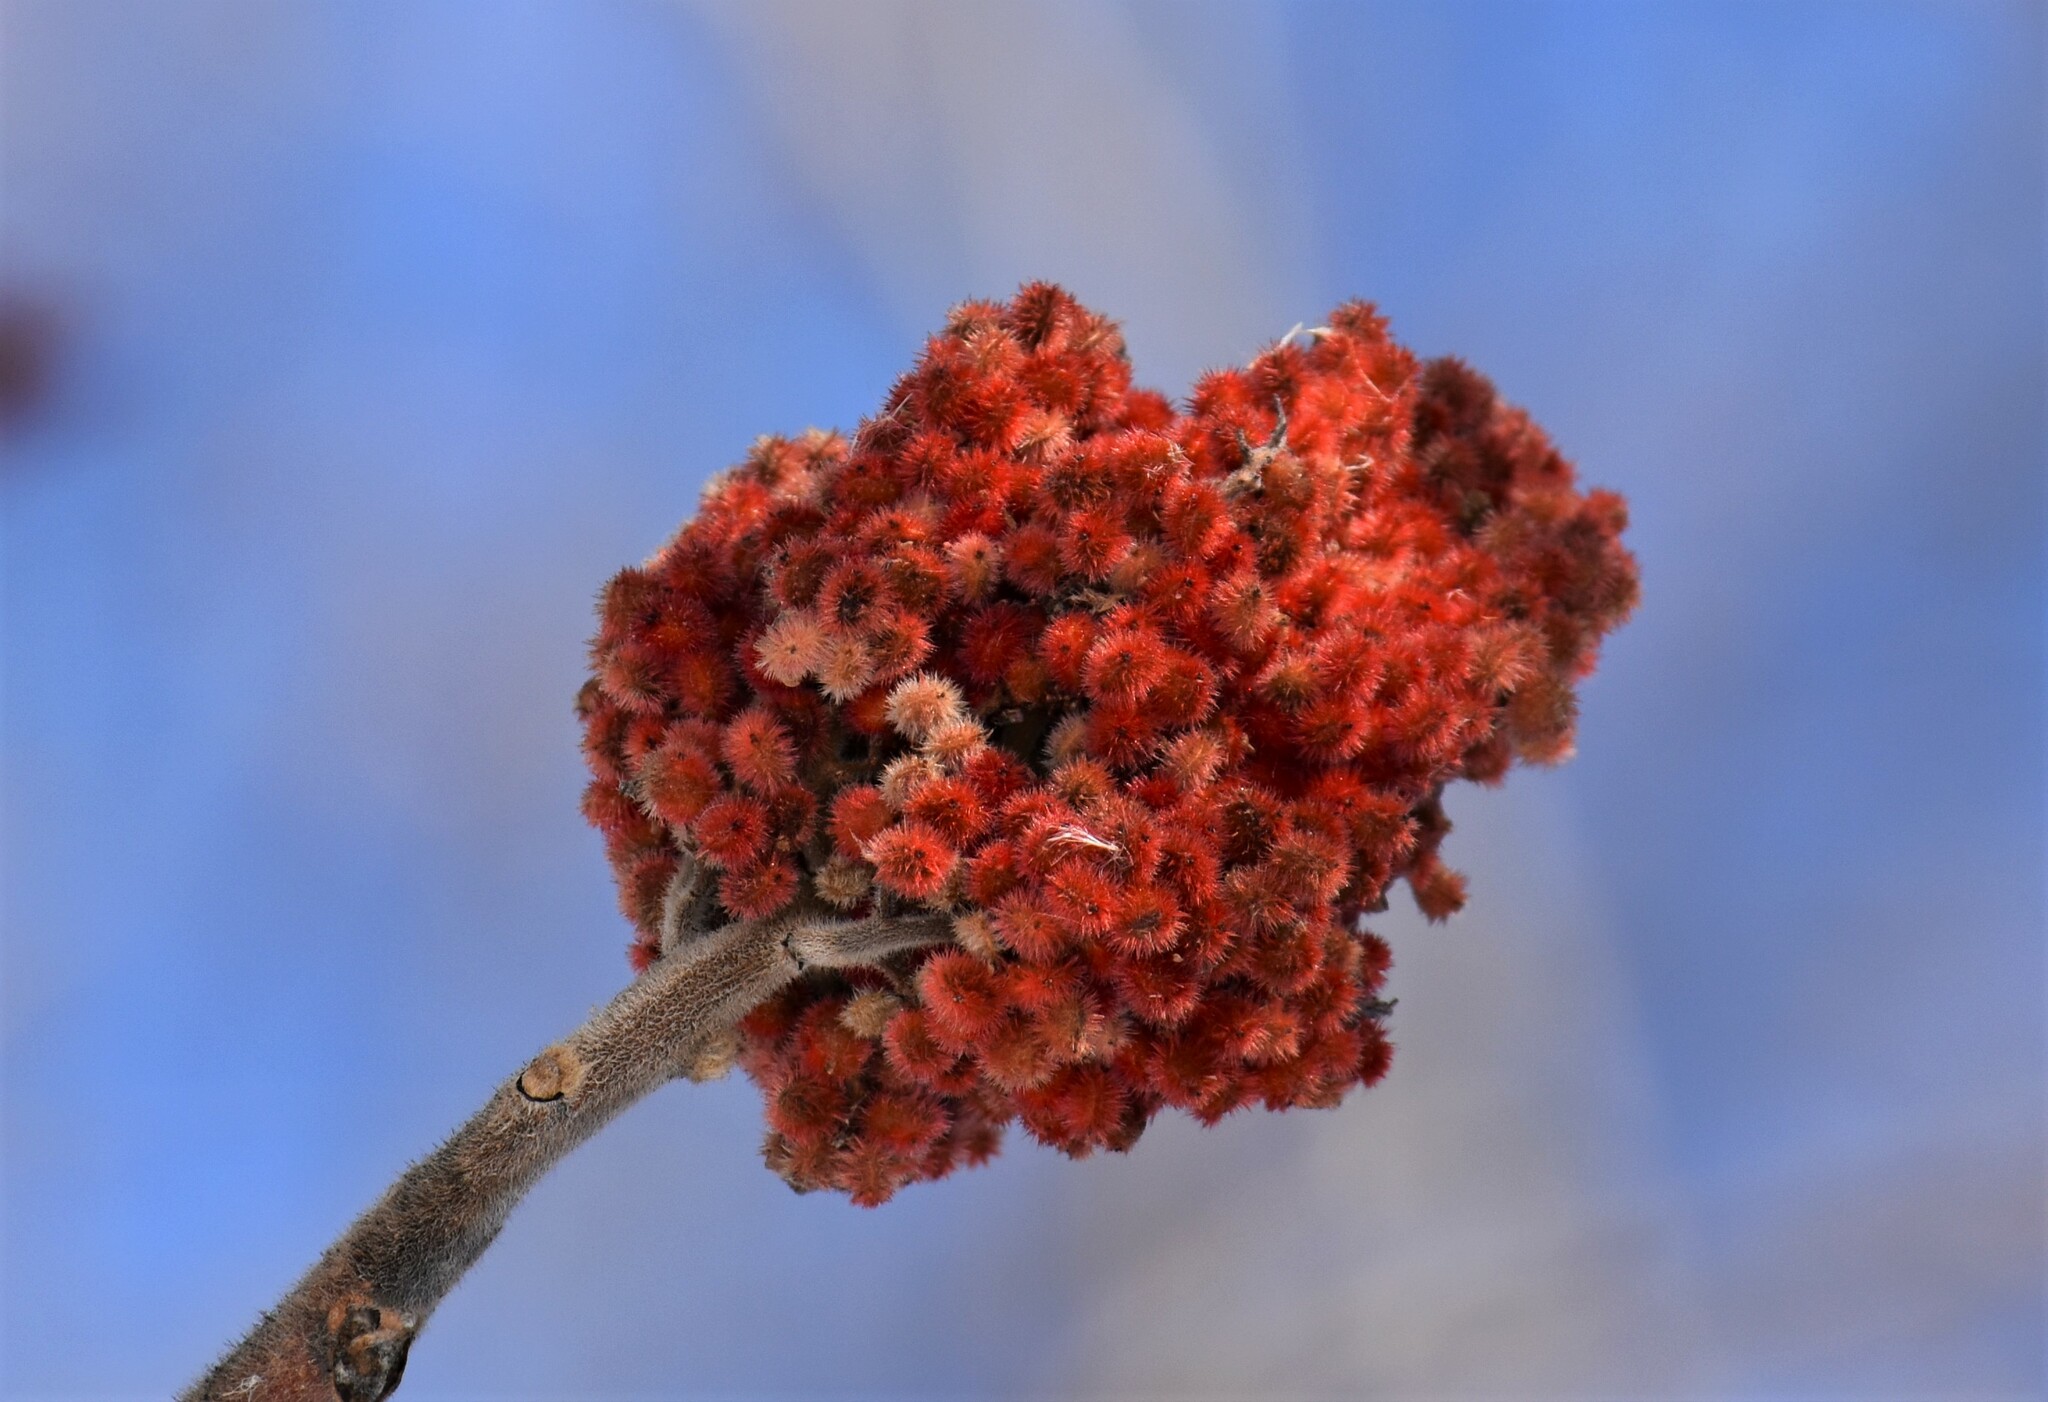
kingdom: Plantae
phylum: Tracheophyta
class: Magnoliopsida
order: Sapindales
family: Anacardiaceae
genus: Rhus
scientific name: Rhus typhina
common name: Staghorn sumac
